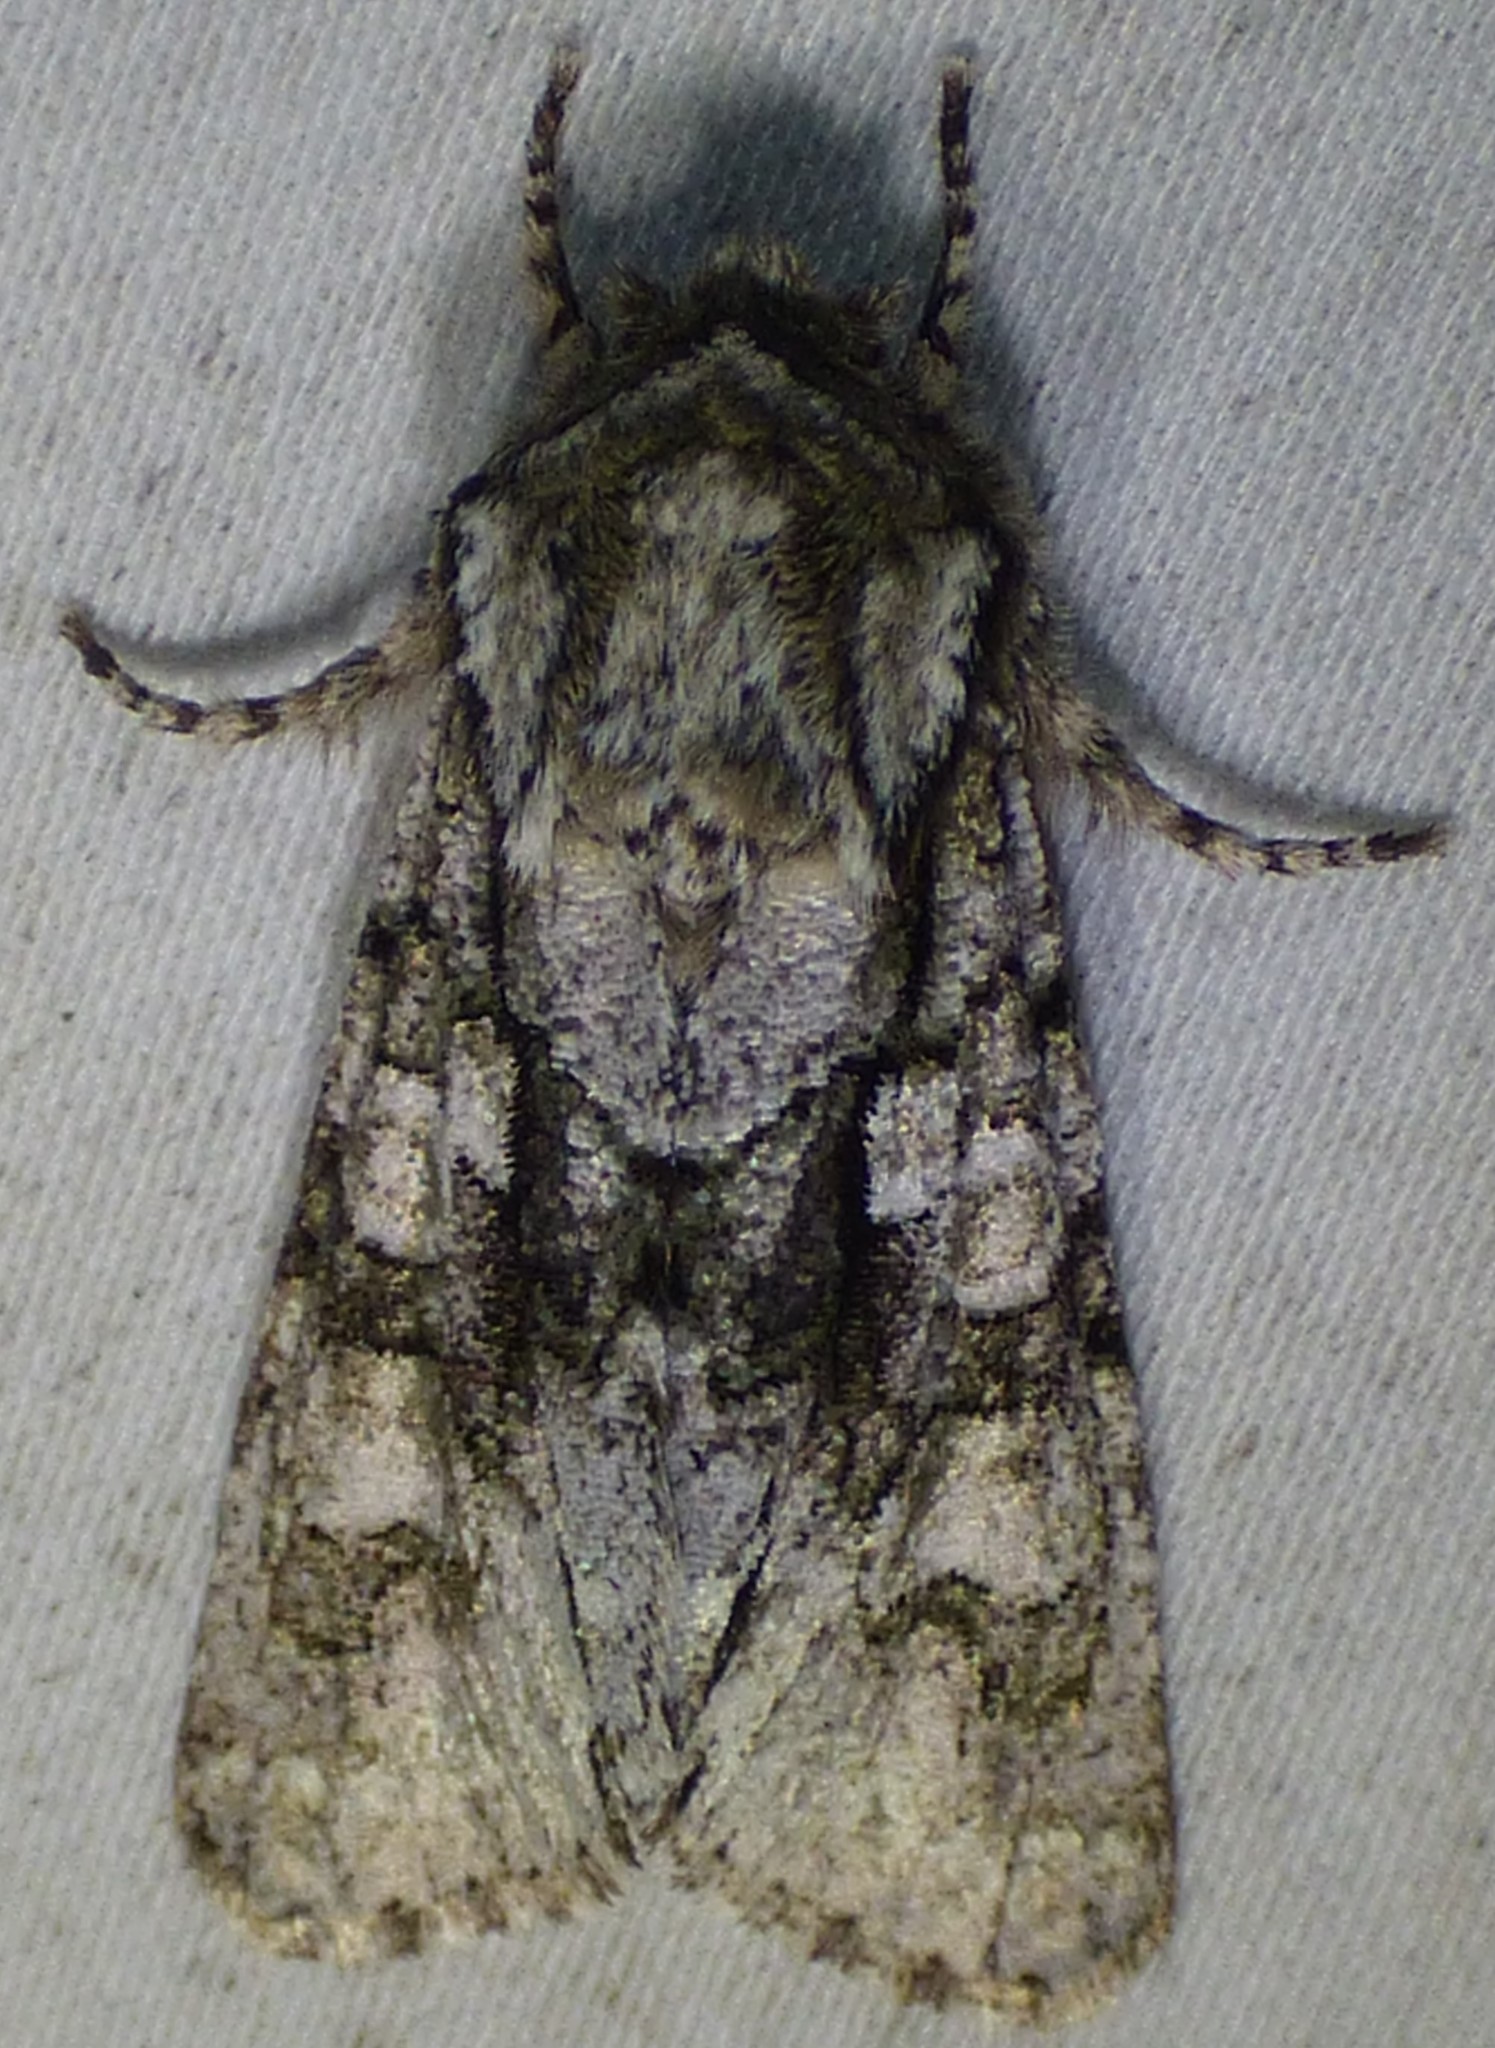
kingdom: Animalia
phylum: Arthropoda
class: Insecta
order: Lepidoptera
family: Noctuidae
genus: Psaphida
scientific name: Psaphida resumens
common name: Figure-eight sallow
